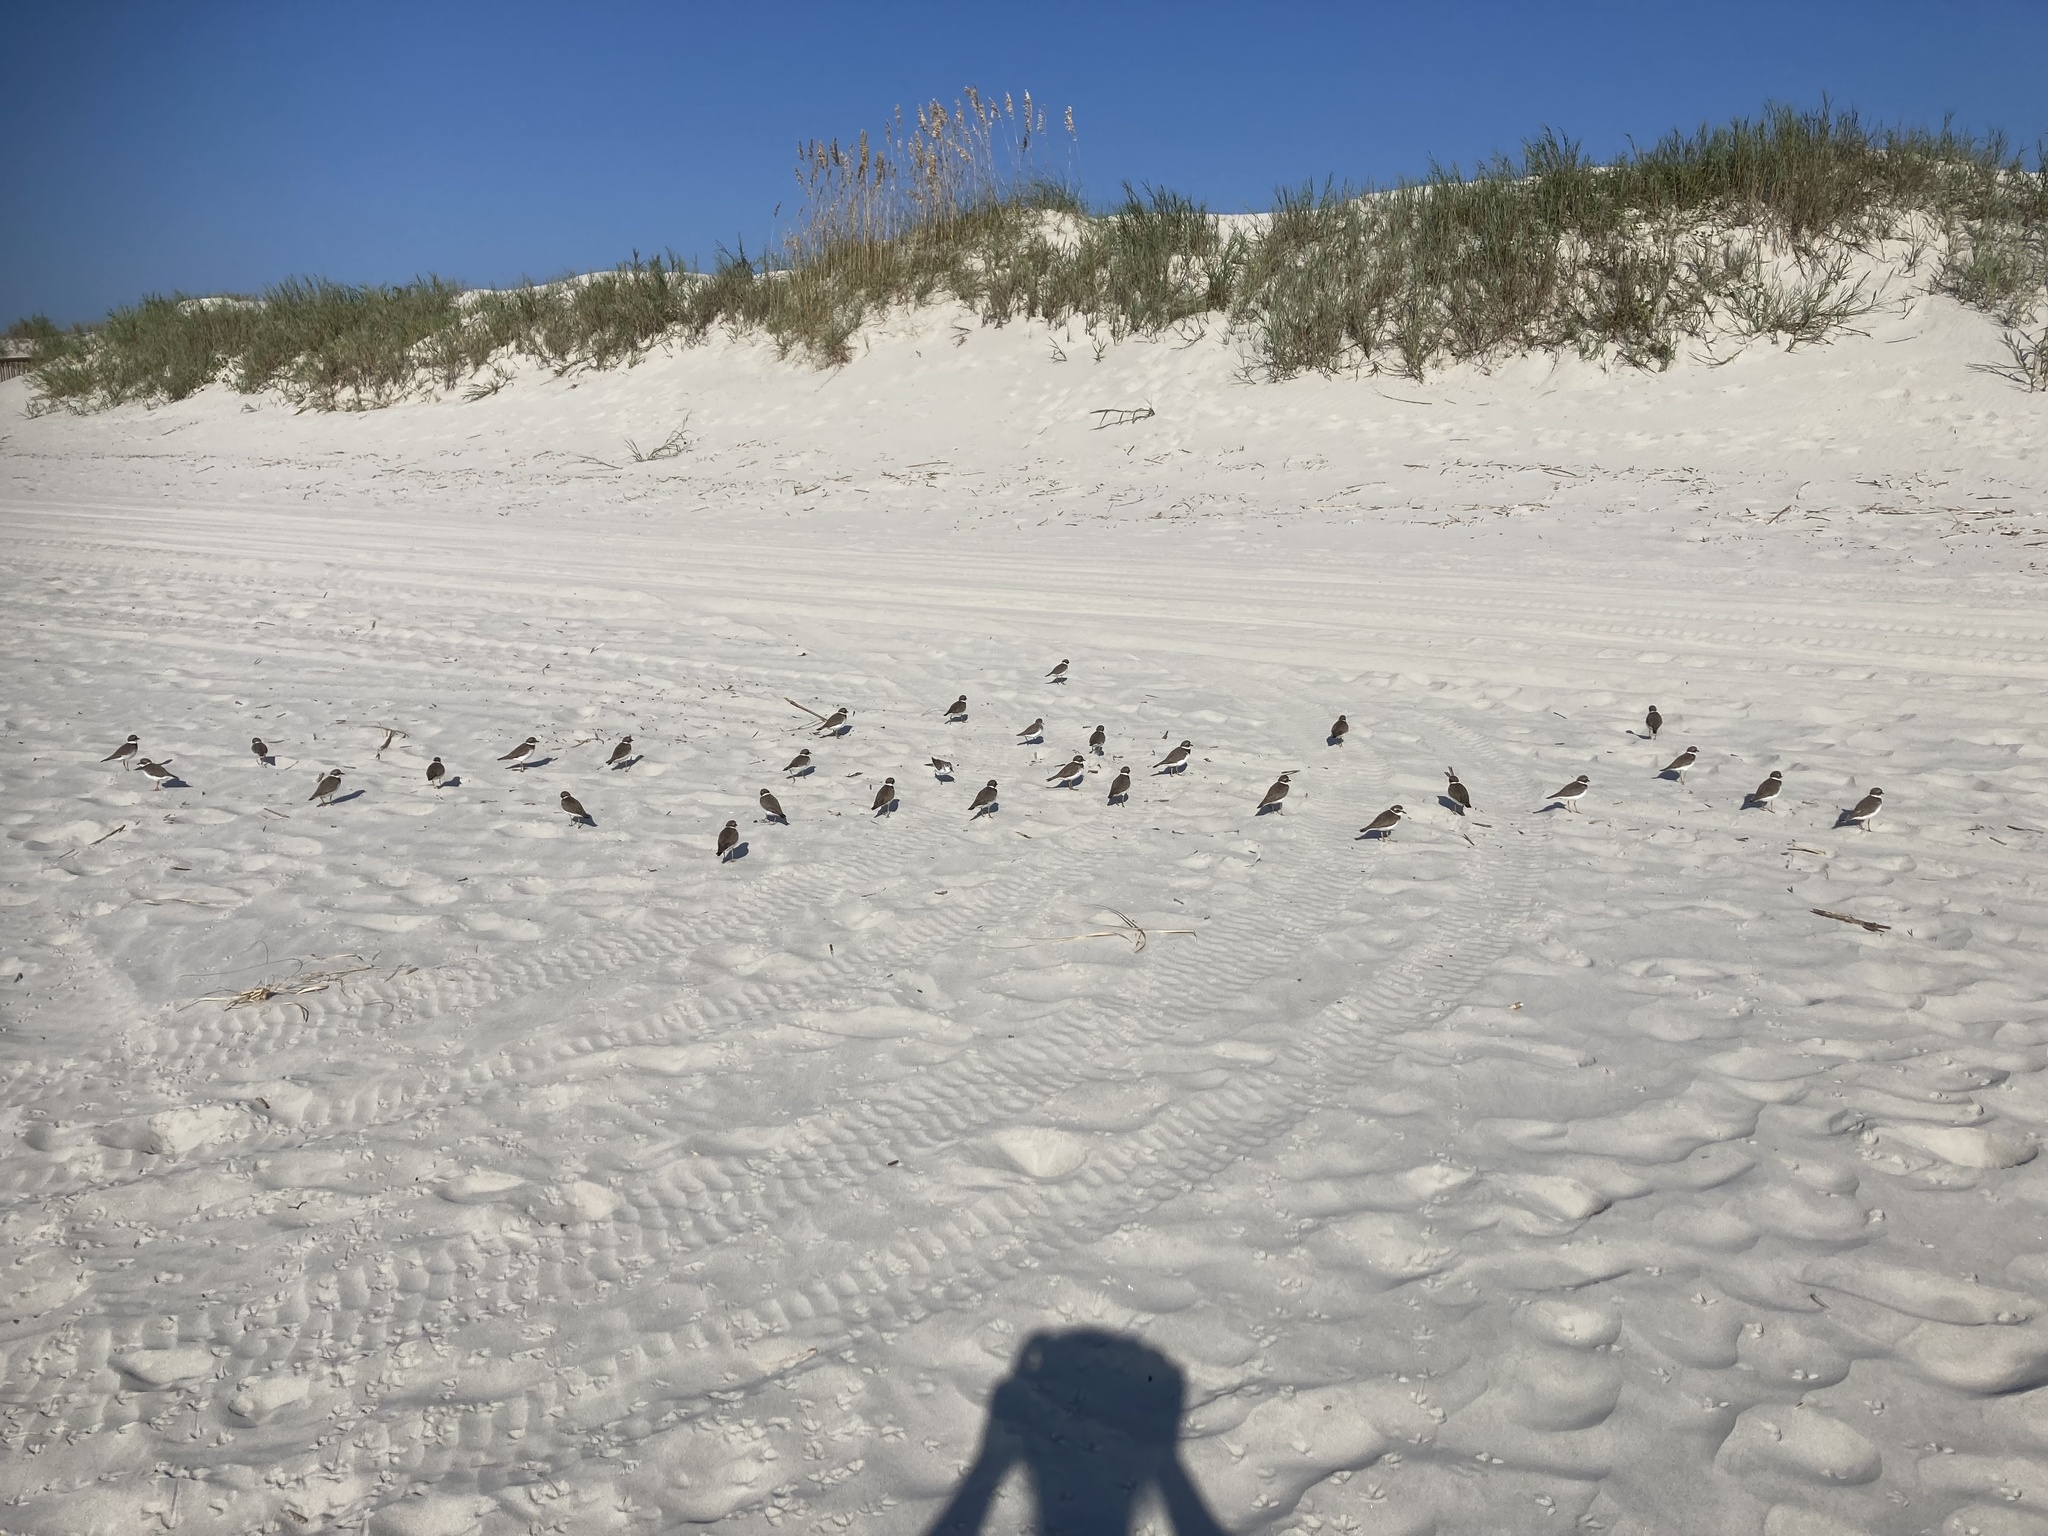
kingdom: Animalia
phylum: Chordata
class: Aves
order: Charadriiformes
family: Charadriidae
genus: Charadrius
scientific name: Charadrius semipalmatus
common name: Semipalmated plover
